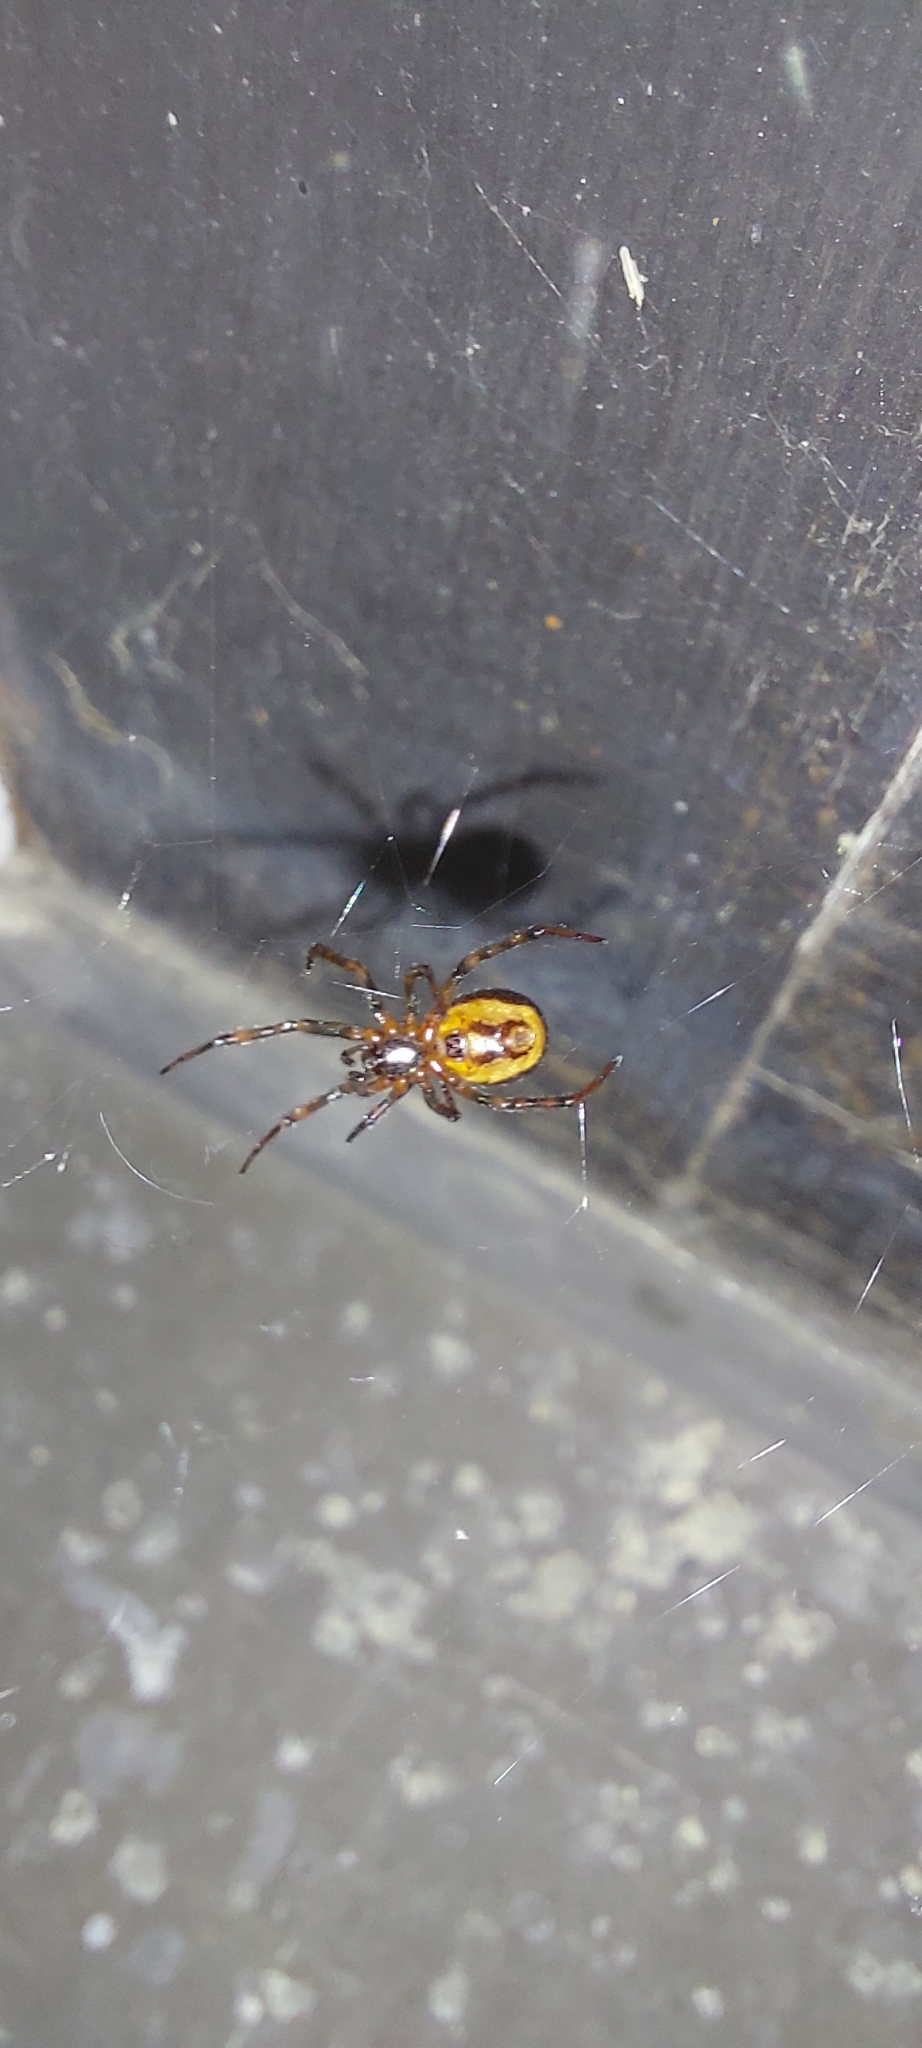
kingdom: Animalia
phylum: Arthropoda
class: Arachnida
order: Araneae
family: Theridiidae
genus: Steatoda
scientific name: Steatoda bipunctata
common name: False widow
